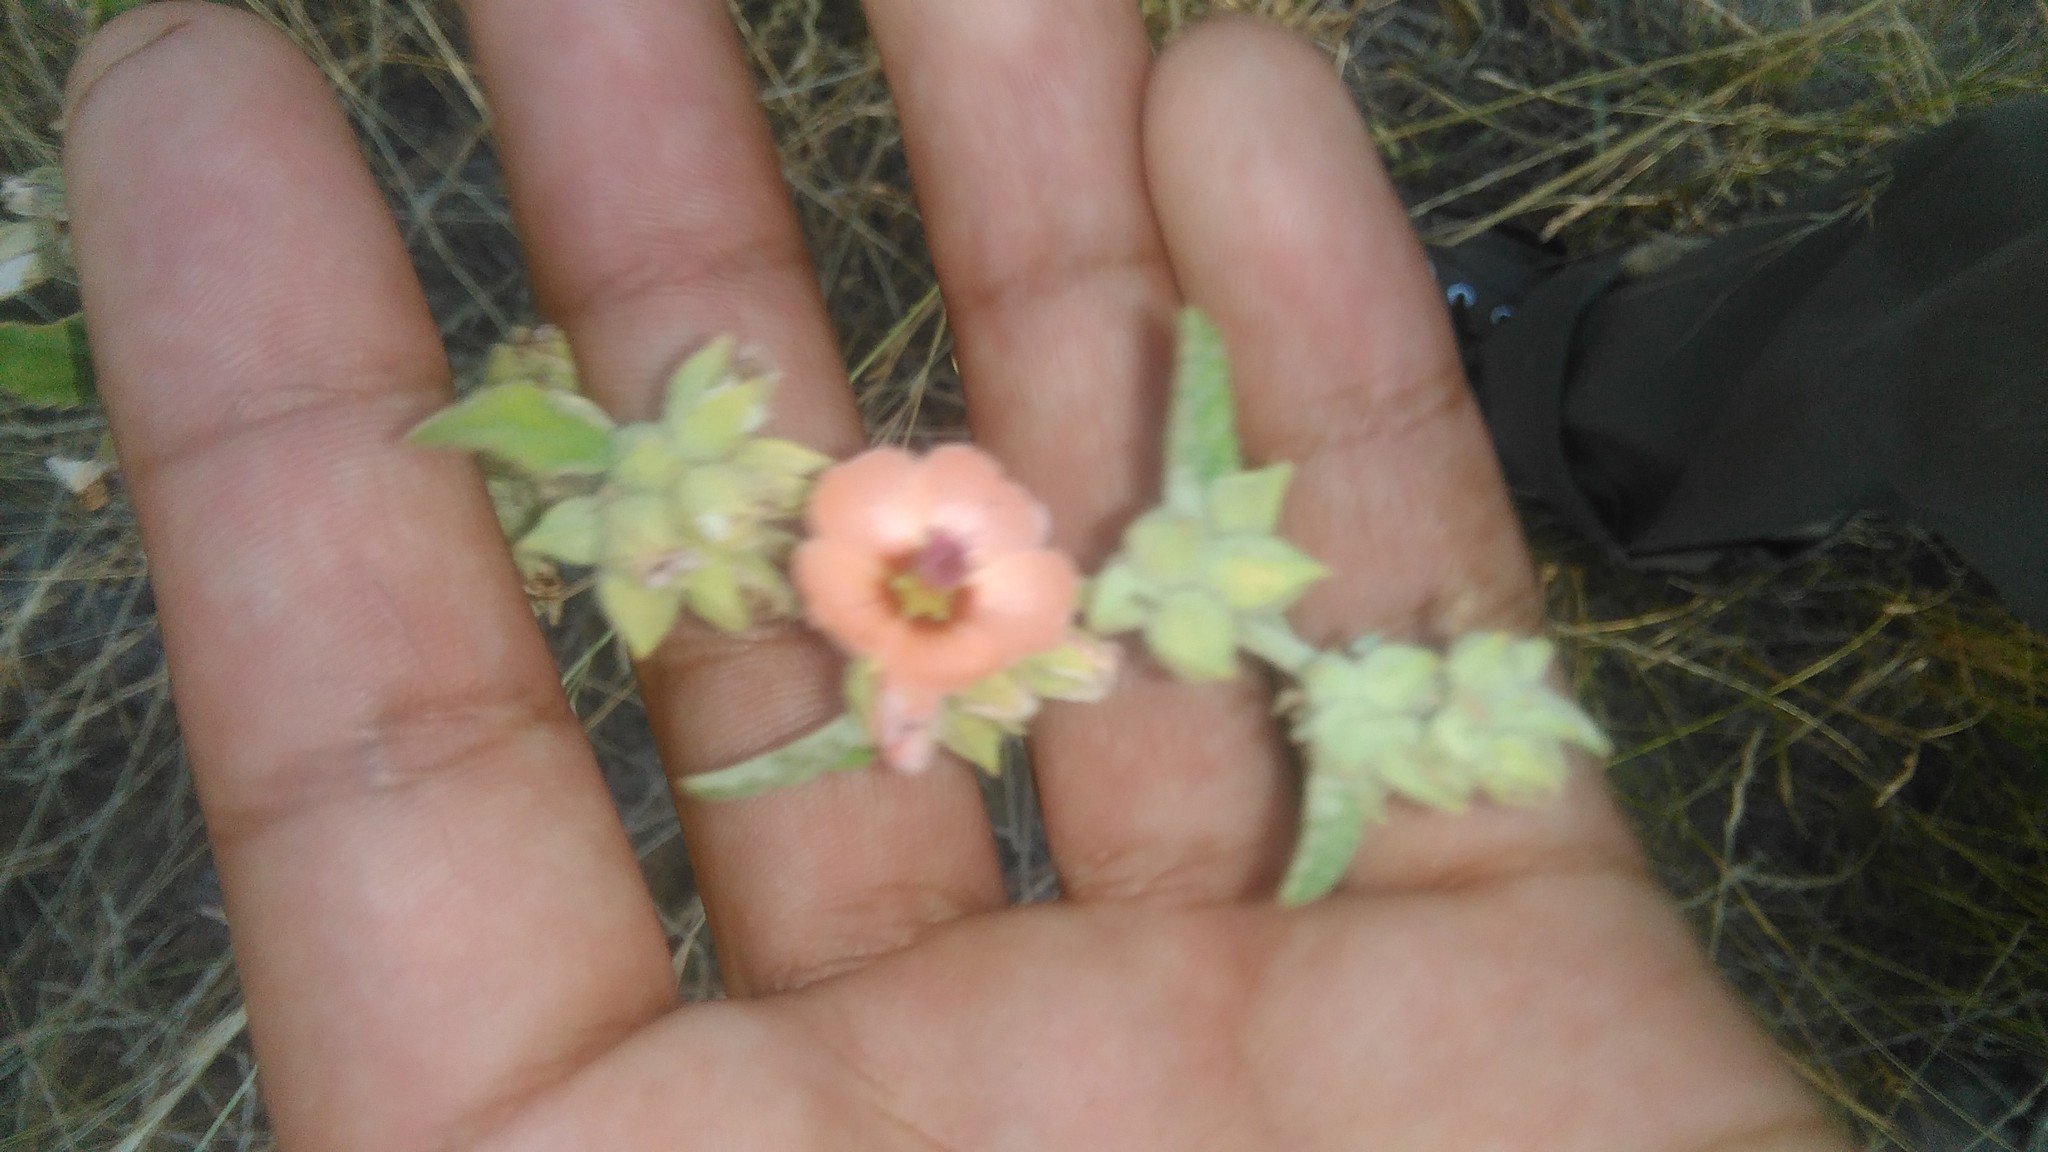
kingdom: Plantae
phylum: Tracheophyta
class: Magnoliopsida
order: Malvales
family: Malvaceae
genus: Sphaeralcea
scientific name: Sphaeralcea bonariensis
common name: Latin globemallow
